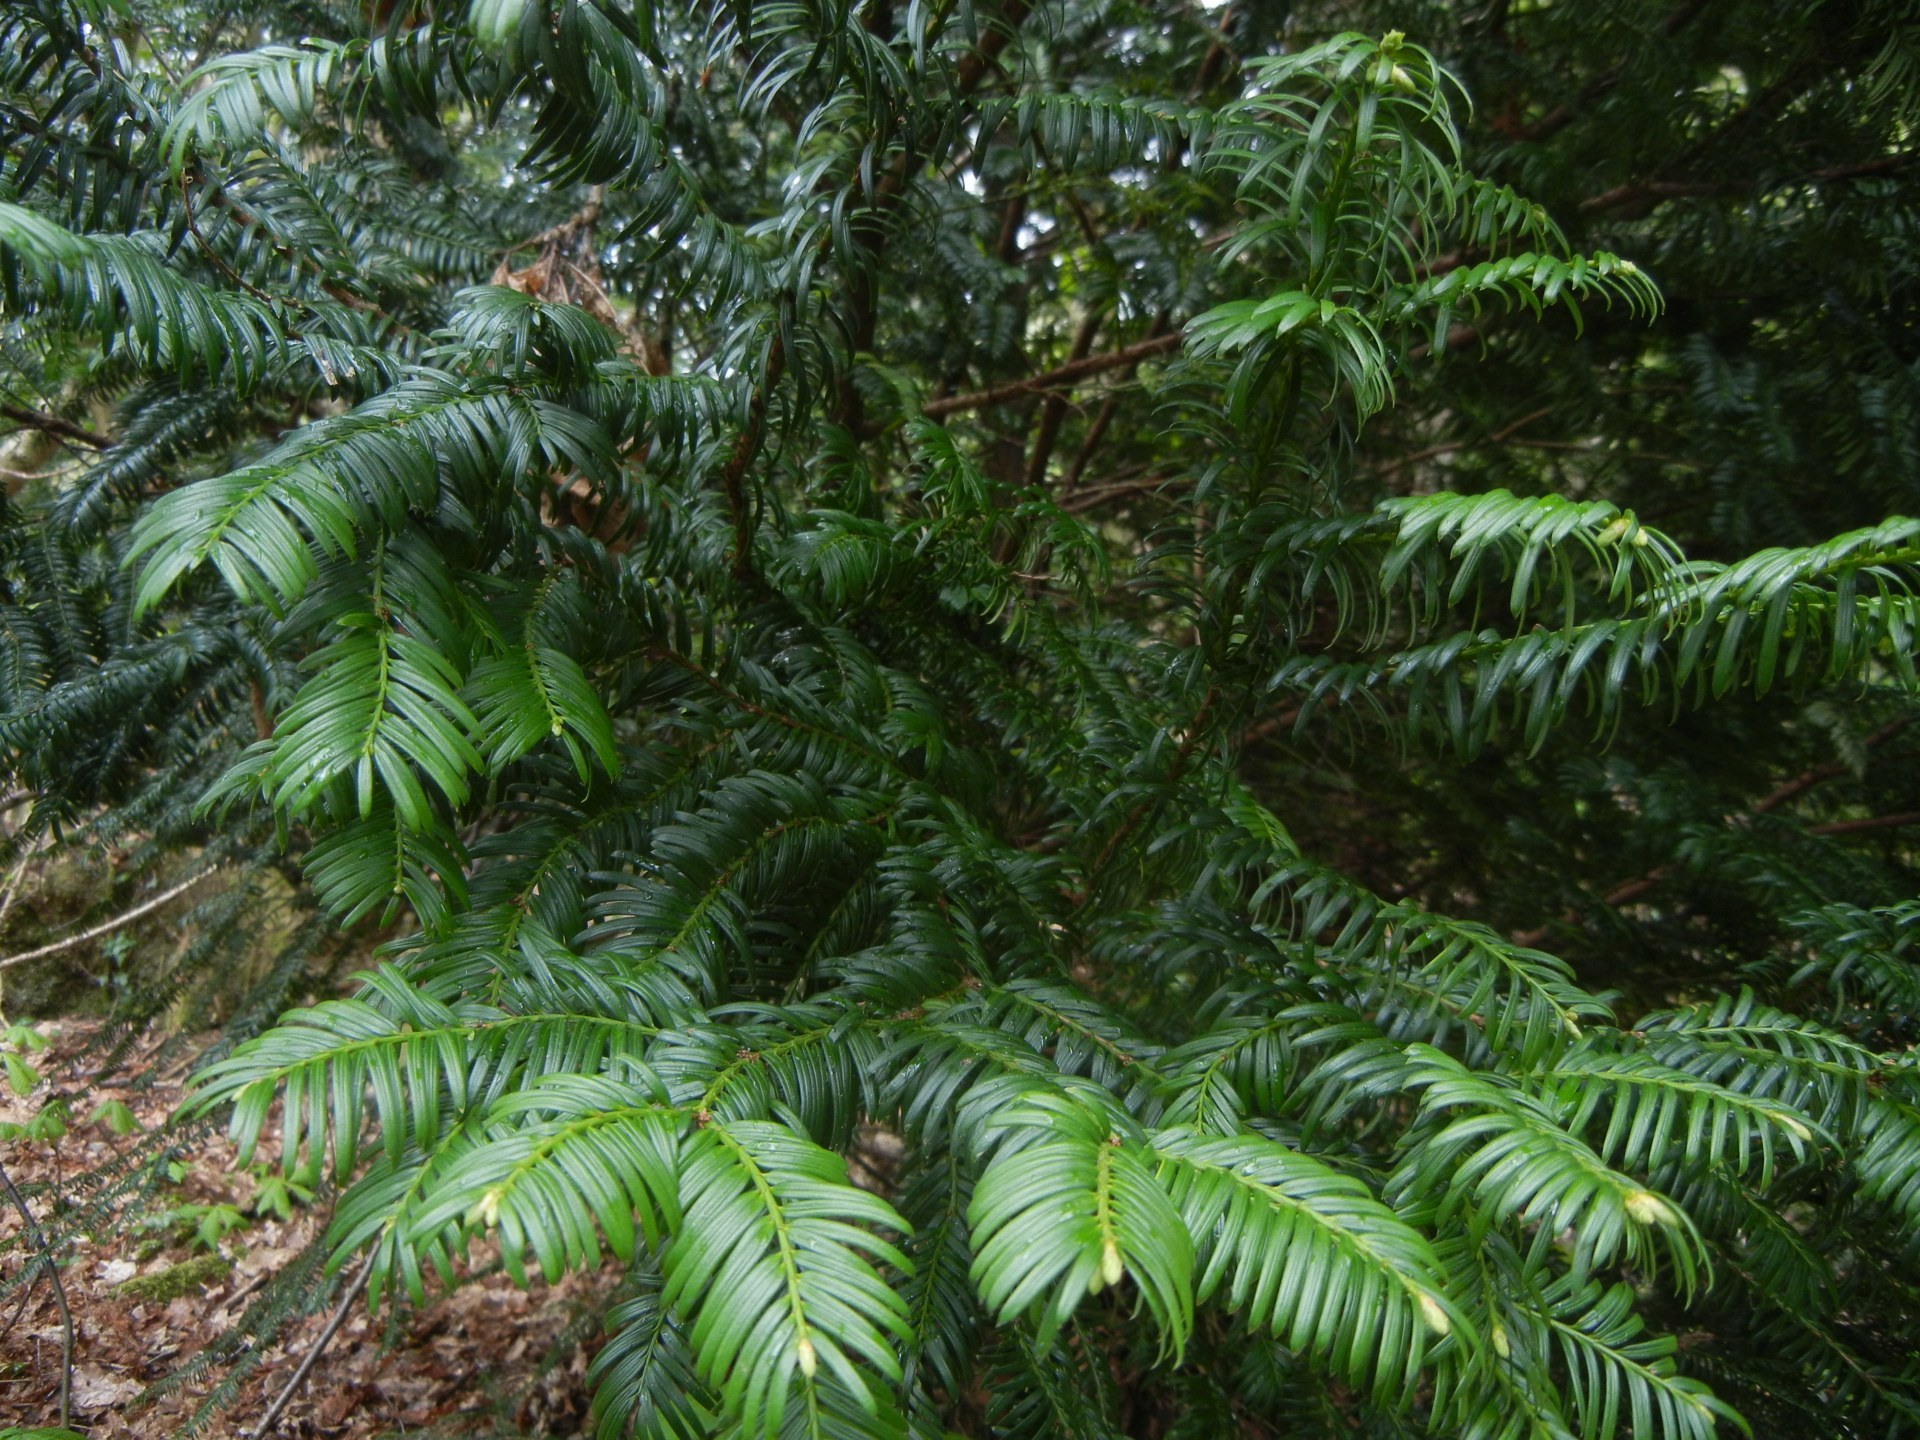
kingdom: Plantae
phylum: Tracheophyta
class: Pinopsida
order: Pinales
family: Taxaceae
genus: Taxus
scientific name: Taxus baccata
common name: Yew
